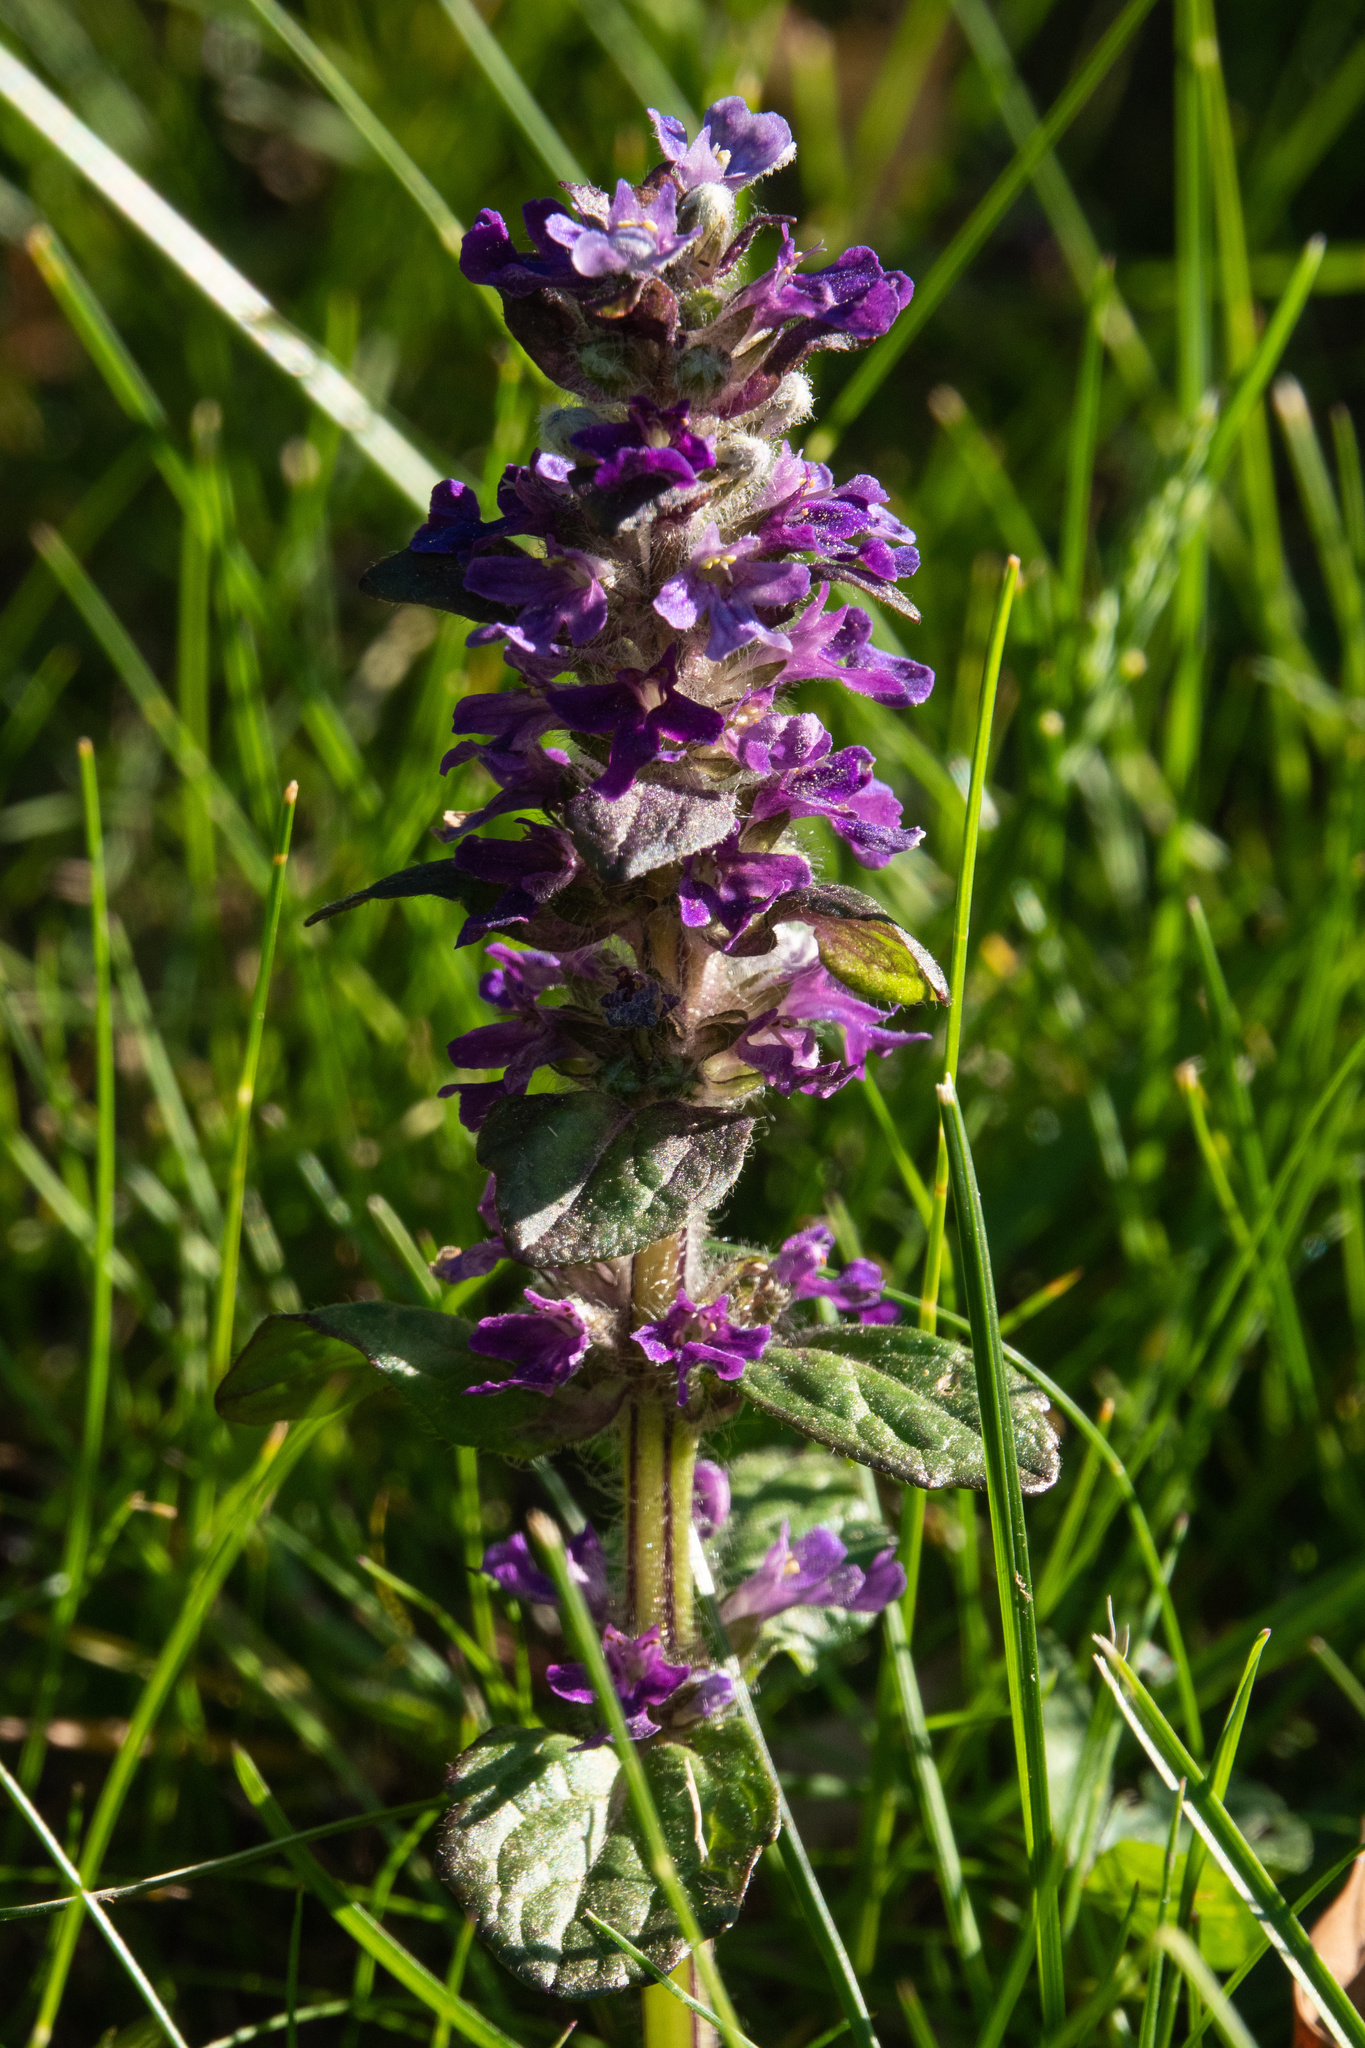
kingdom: Plantae
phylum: Tracheophyta
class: Magnoliopsida
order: Lamiales
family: Lamiaceae
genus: Ajuga
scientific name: Ajuga reptans
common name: Bugle
